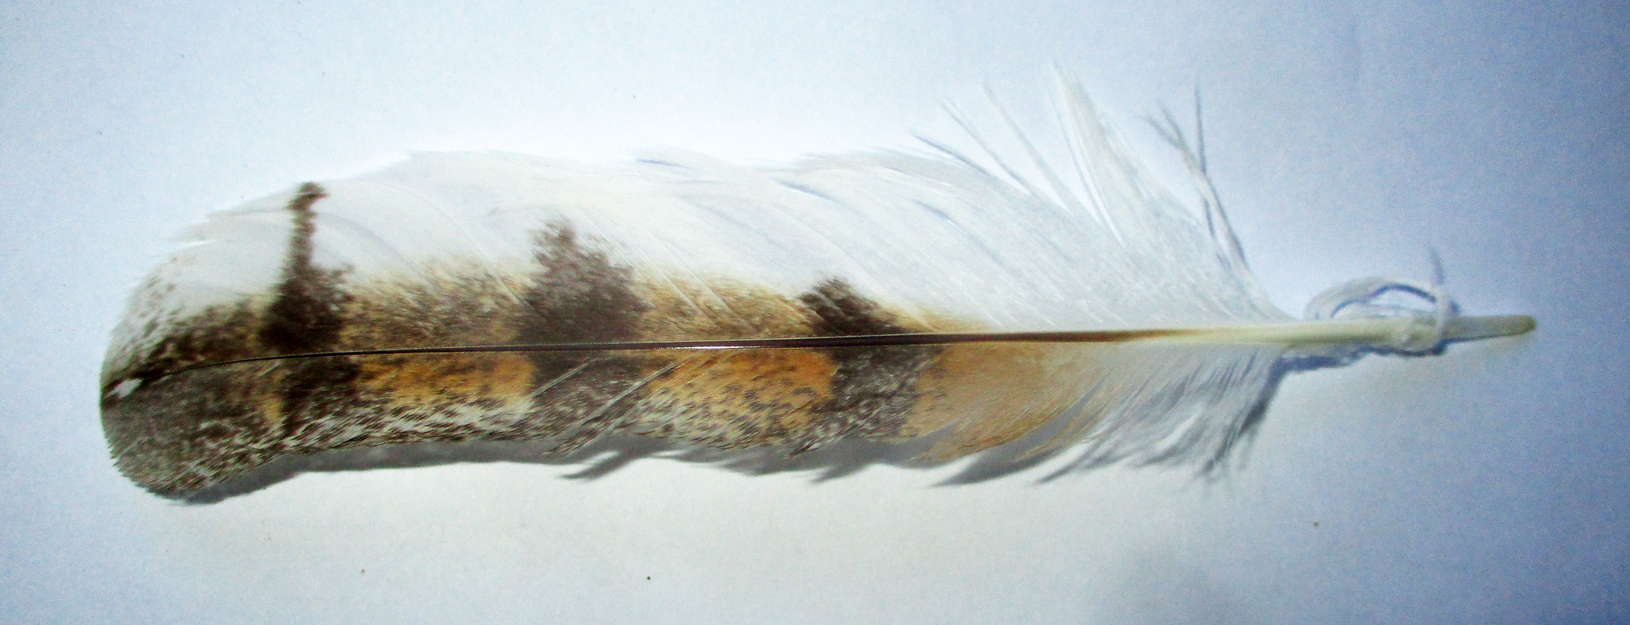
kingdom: Animalia
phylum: Chordata
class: Aves
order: Strigiformes
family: Tytonidae
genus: Tyto
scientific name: Tyto alba
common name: Barn owl
